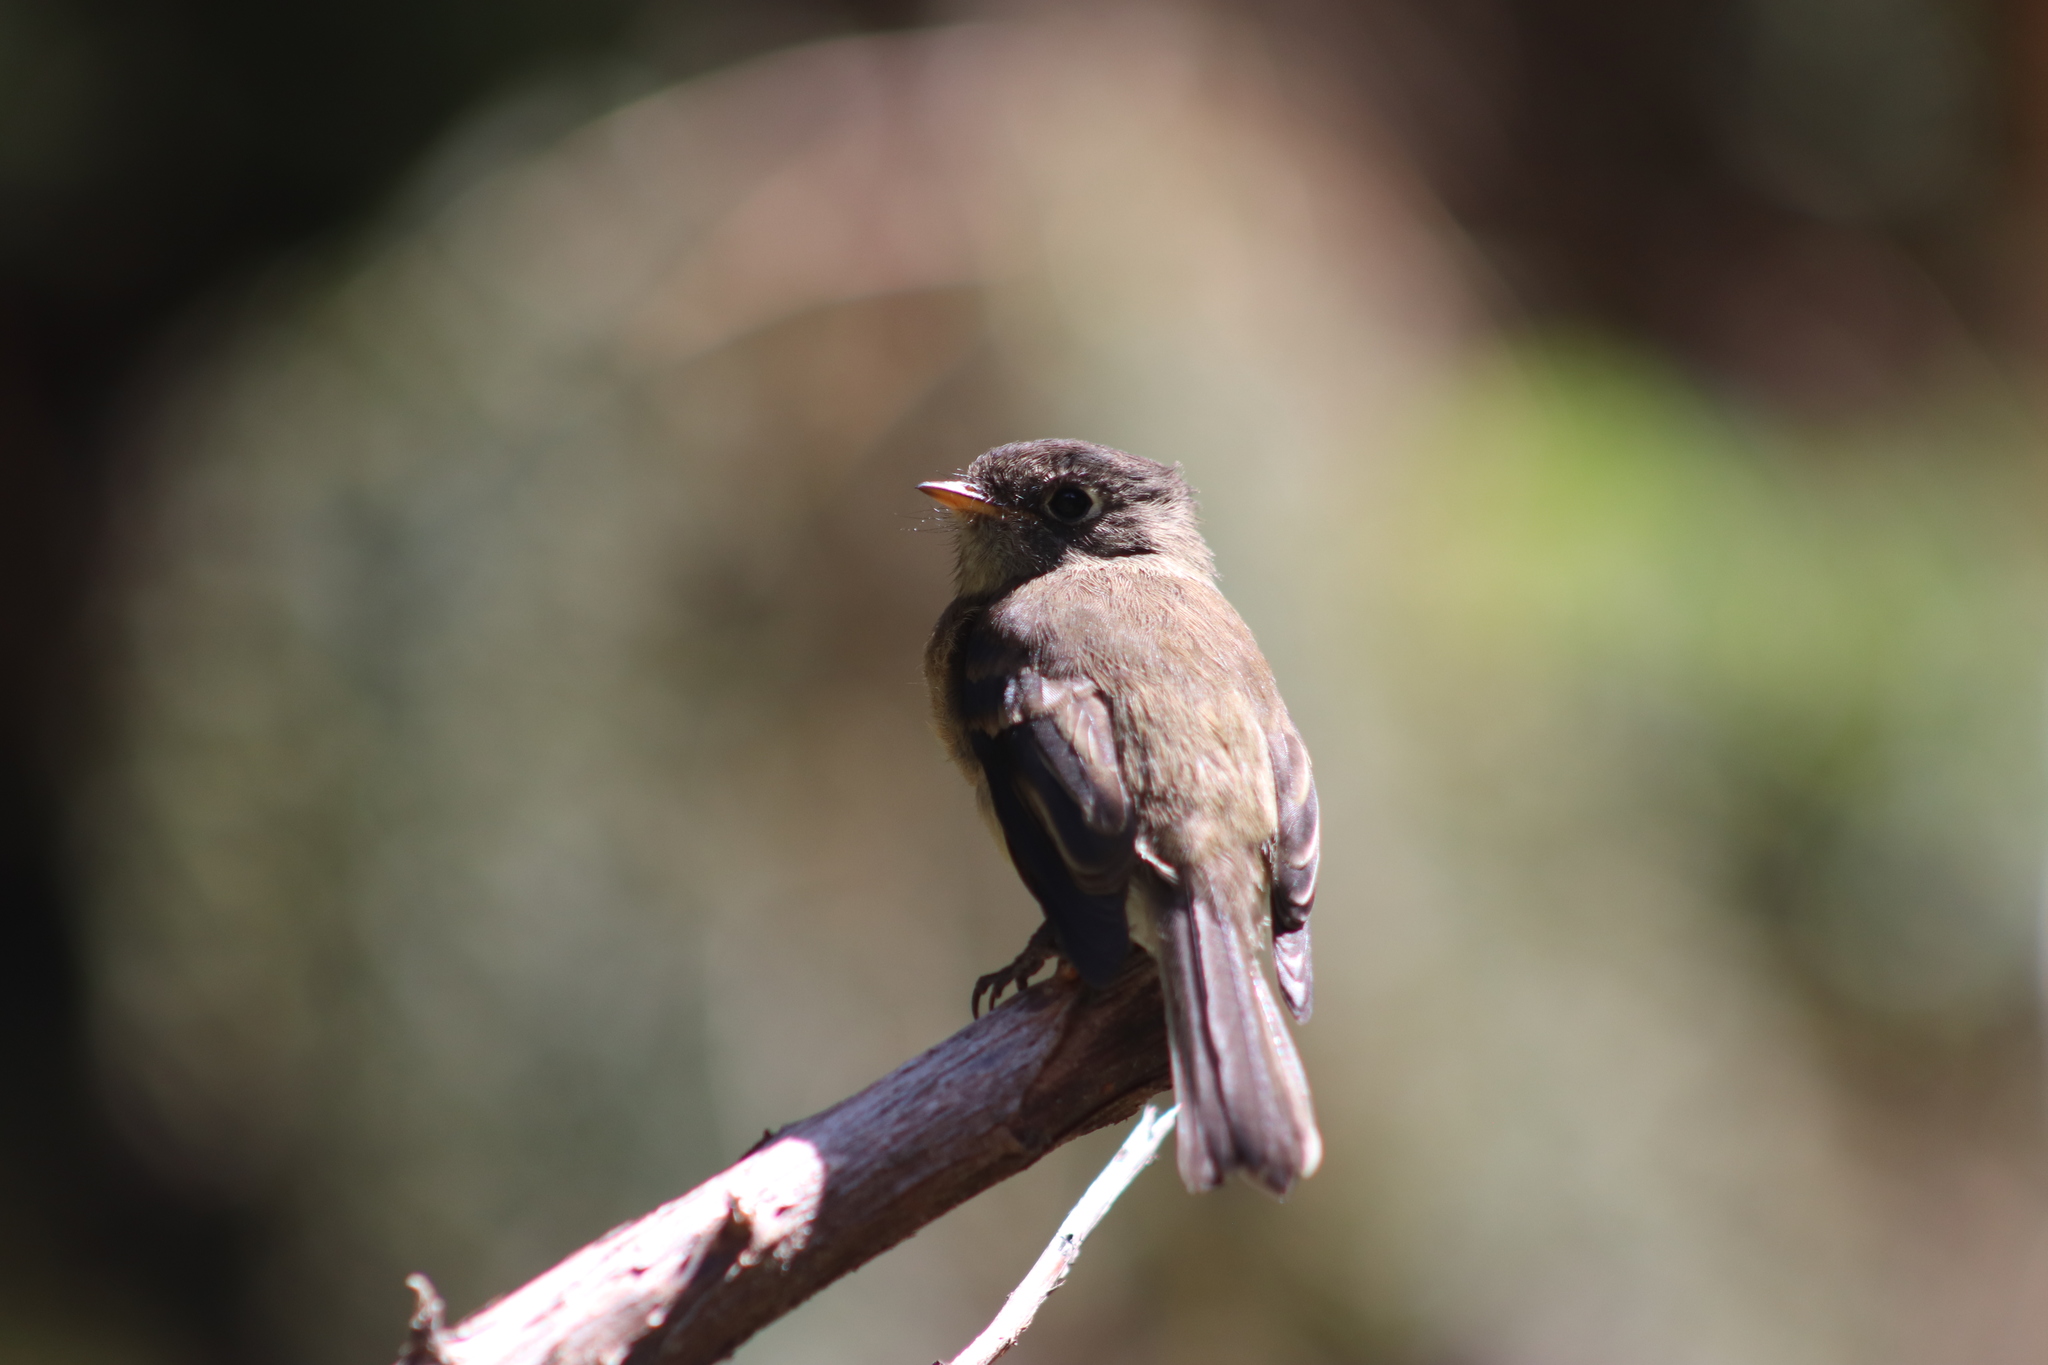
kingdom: Animalia
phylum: Chordata
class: Aves
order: Passeriformes
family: Tyrannidae
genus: Empidonax
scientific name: Empidonax atriceps
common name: Black-capped flycatcher
